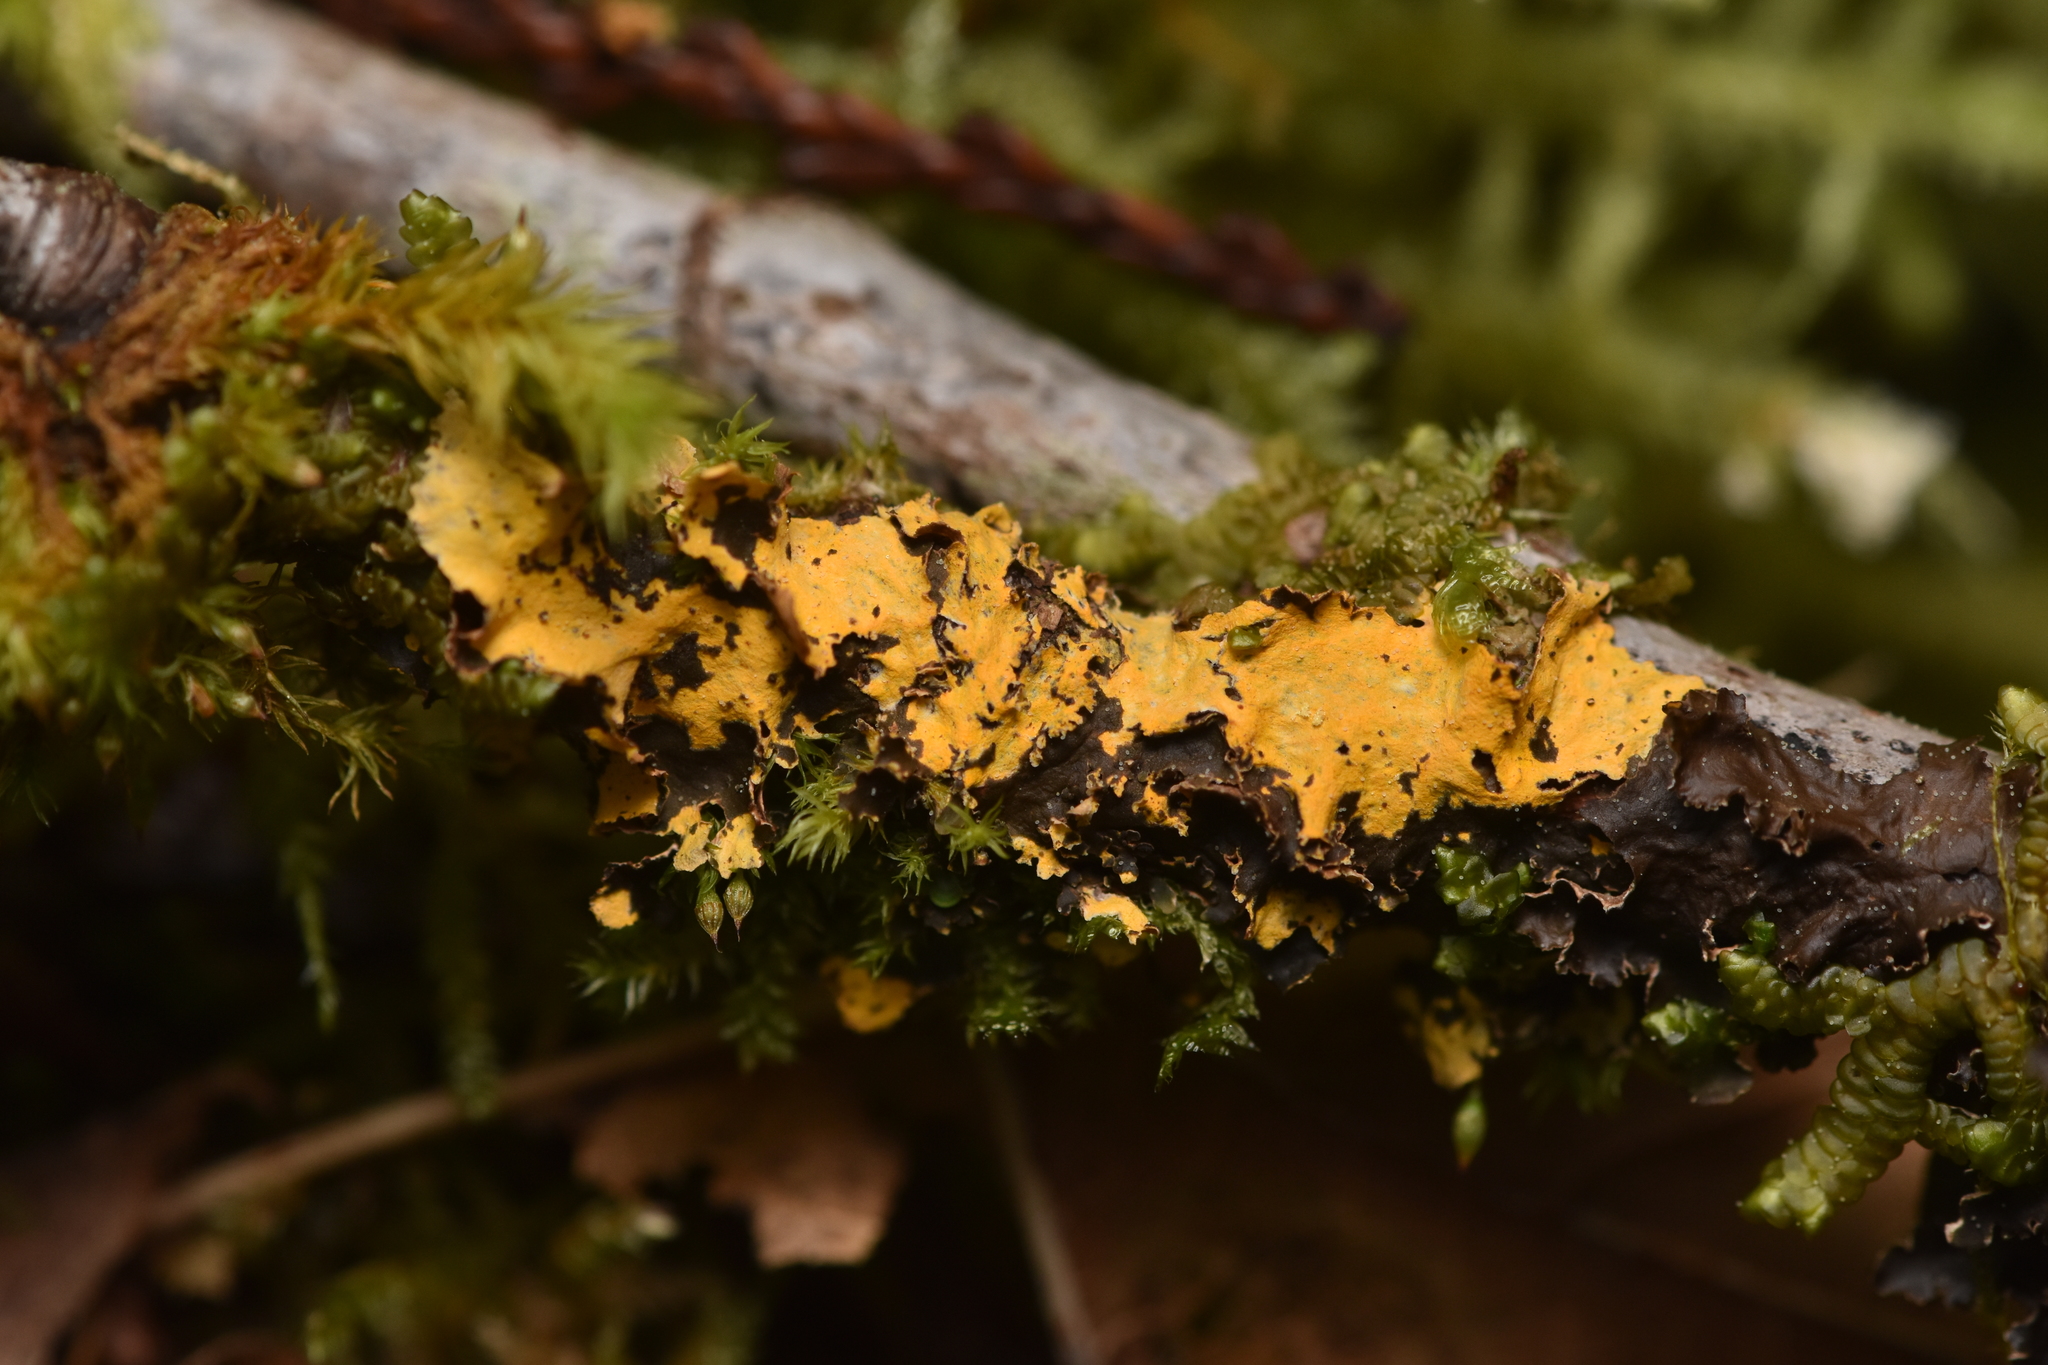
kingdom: Fungi
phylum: Ascomycota
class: Lecanoromycetes
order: Peltigerales
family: Nephromataceae
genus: Nephroma
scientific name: Nephroma laevigatum
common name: Mustard kidney lichen
